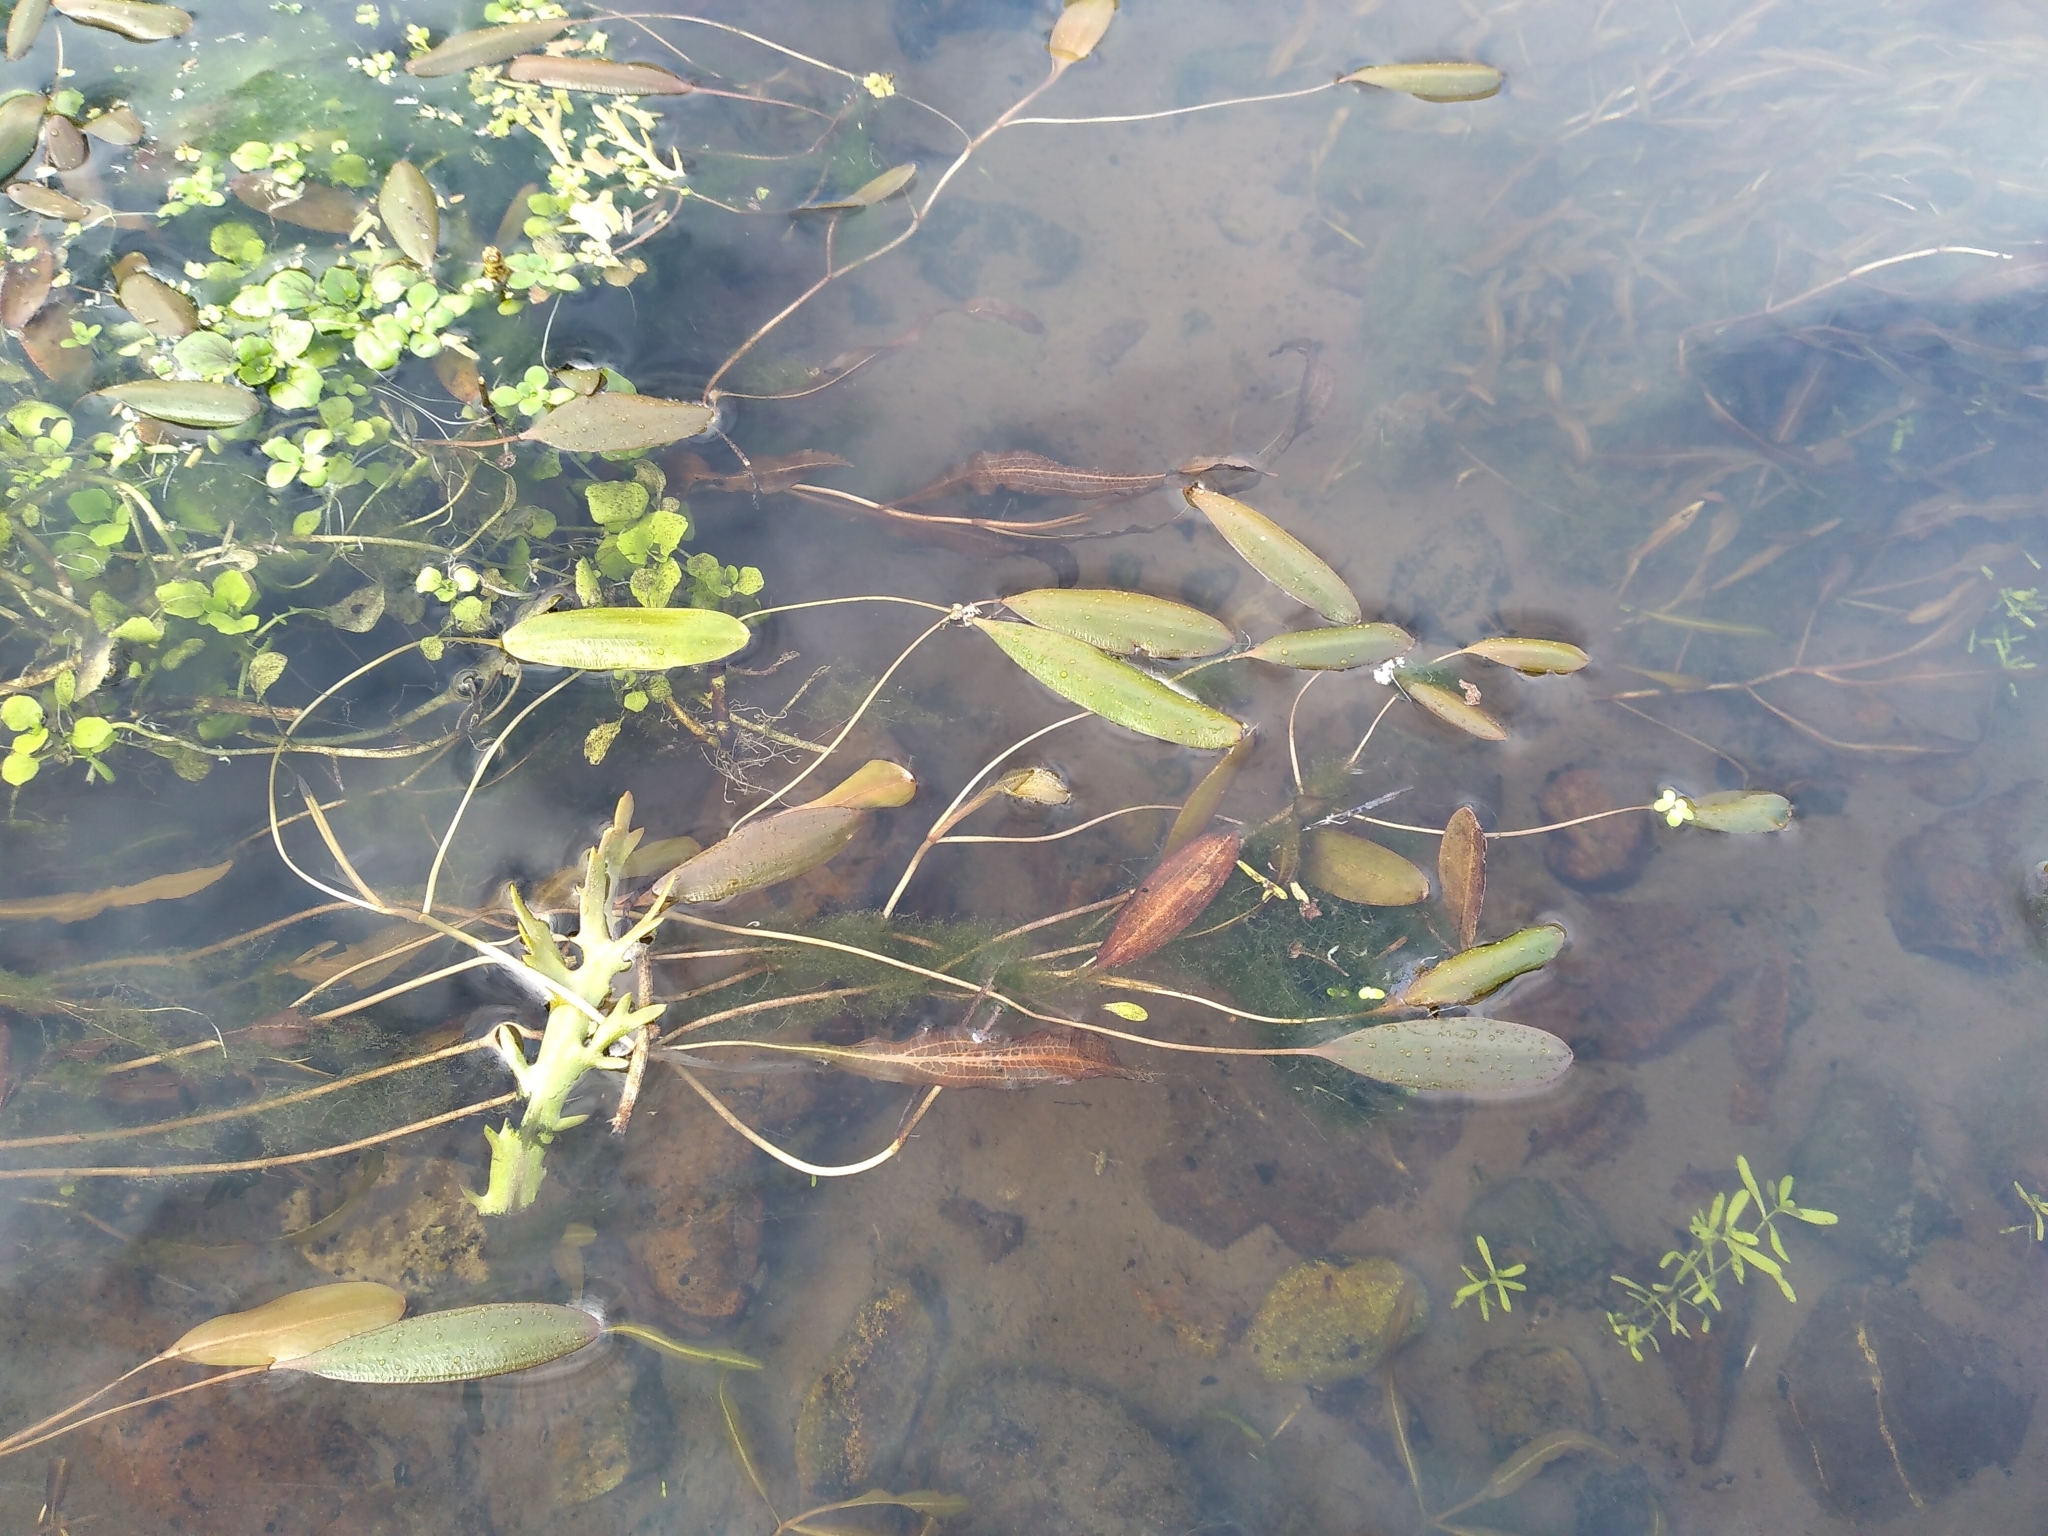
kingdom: Plantae
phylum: Tracheophyta
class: Liliopsida
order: Alismatales
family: Potamogetonaceae
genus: Potamogeton
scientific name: Potamogeton cheesemanii
